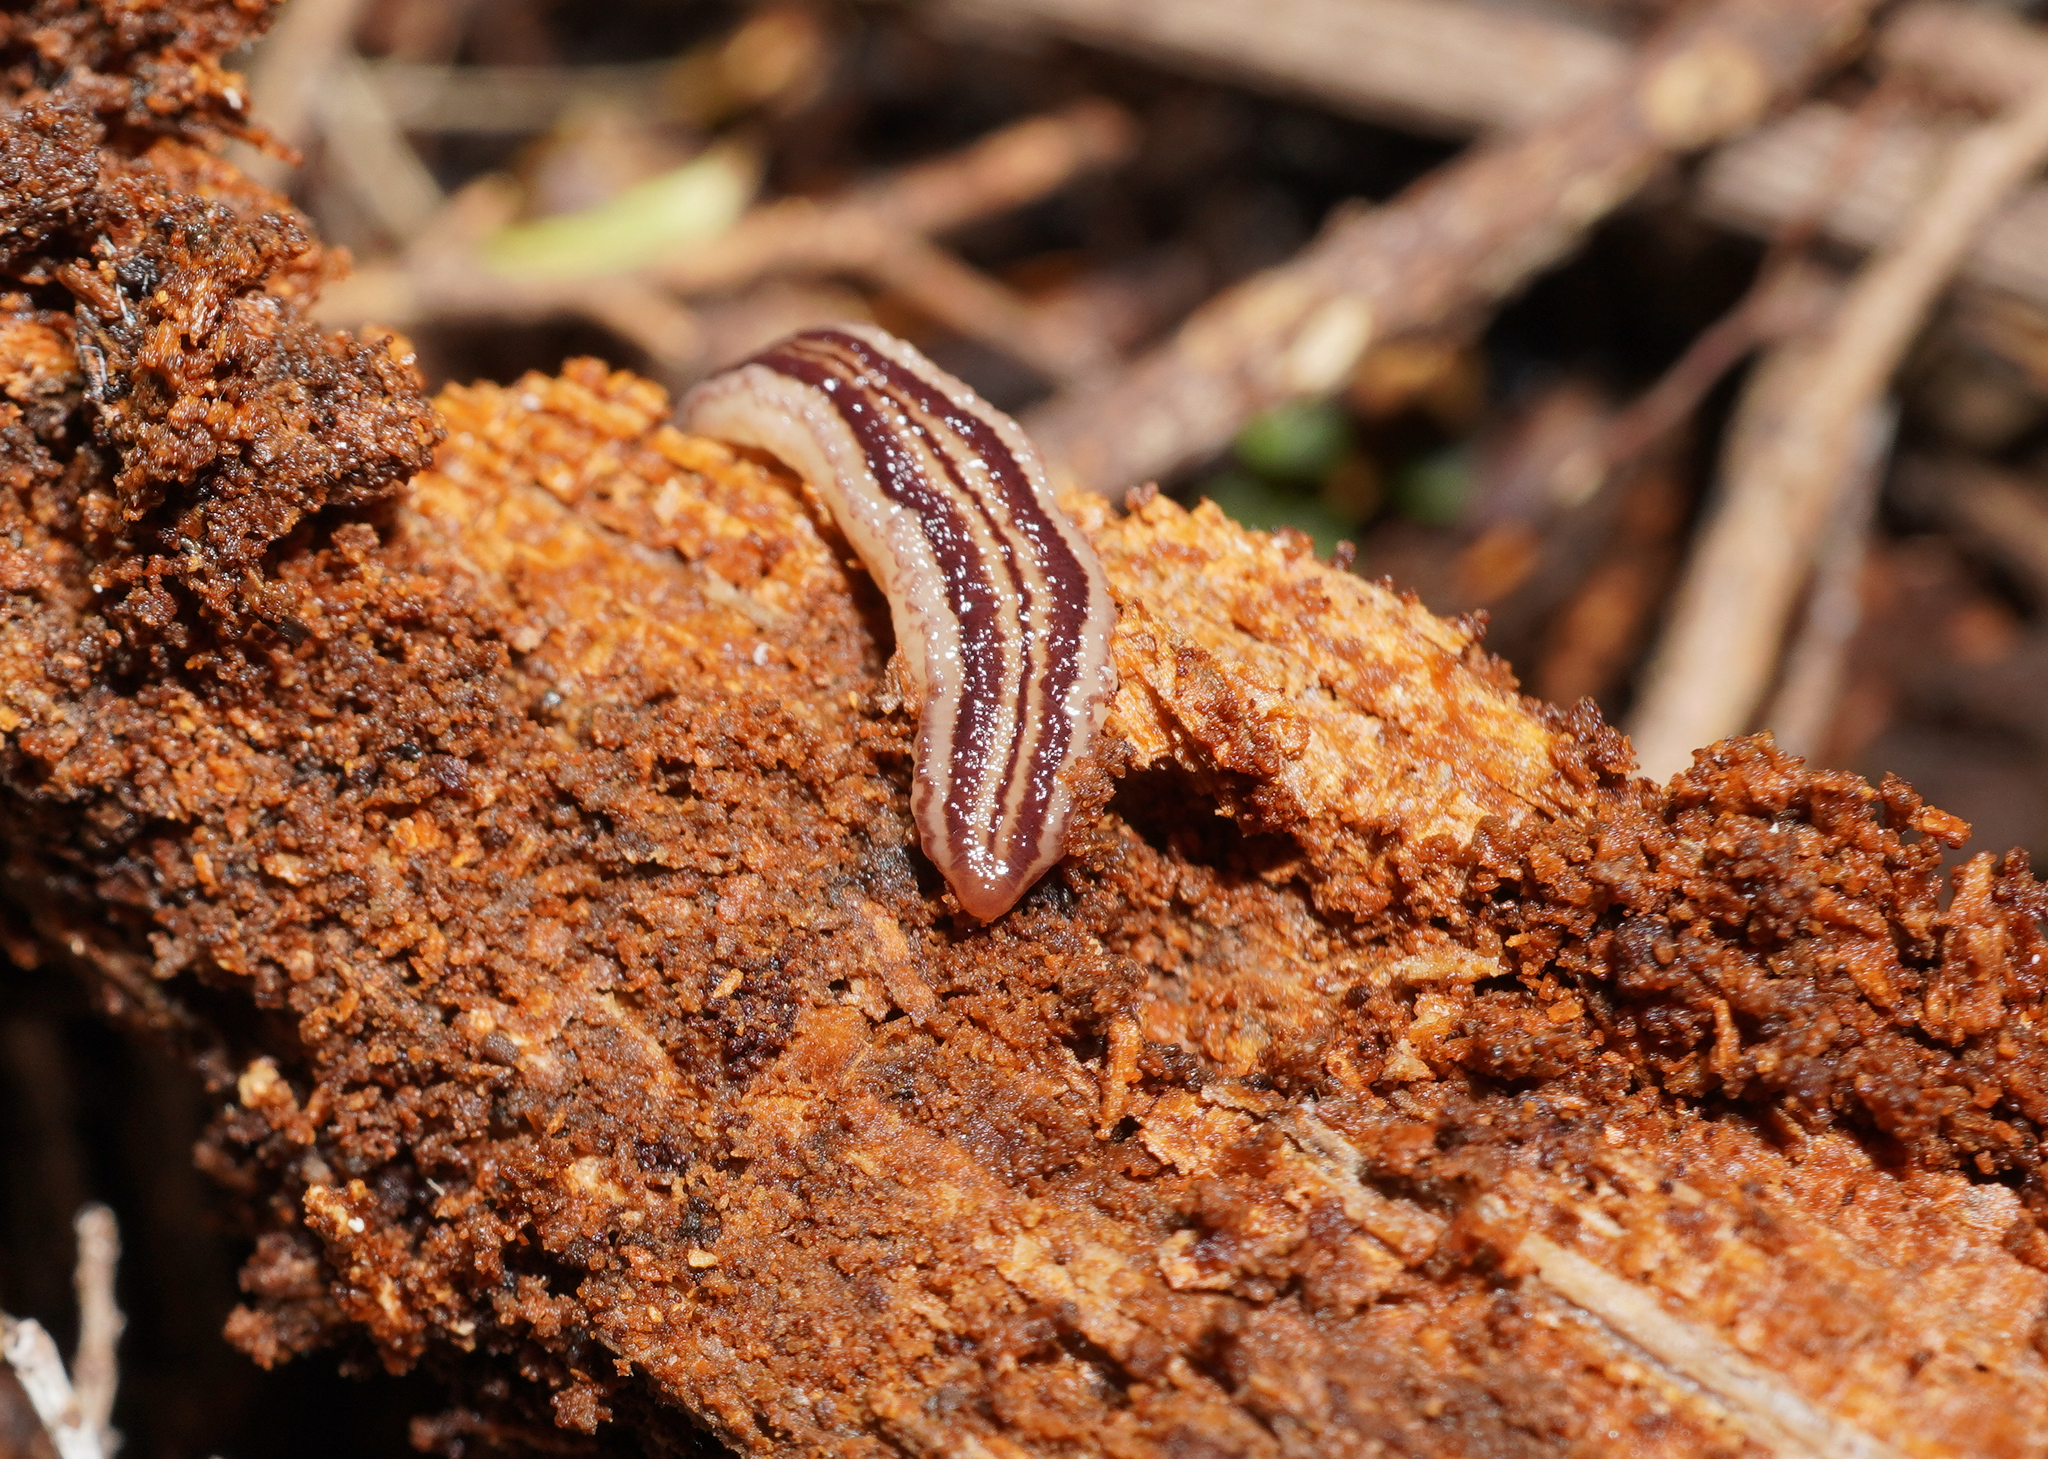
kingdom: Animalia
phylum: Platyhelminthes
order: Tricladida
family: Geoplanidae
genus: Artioposthia
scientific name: Artioposthia
